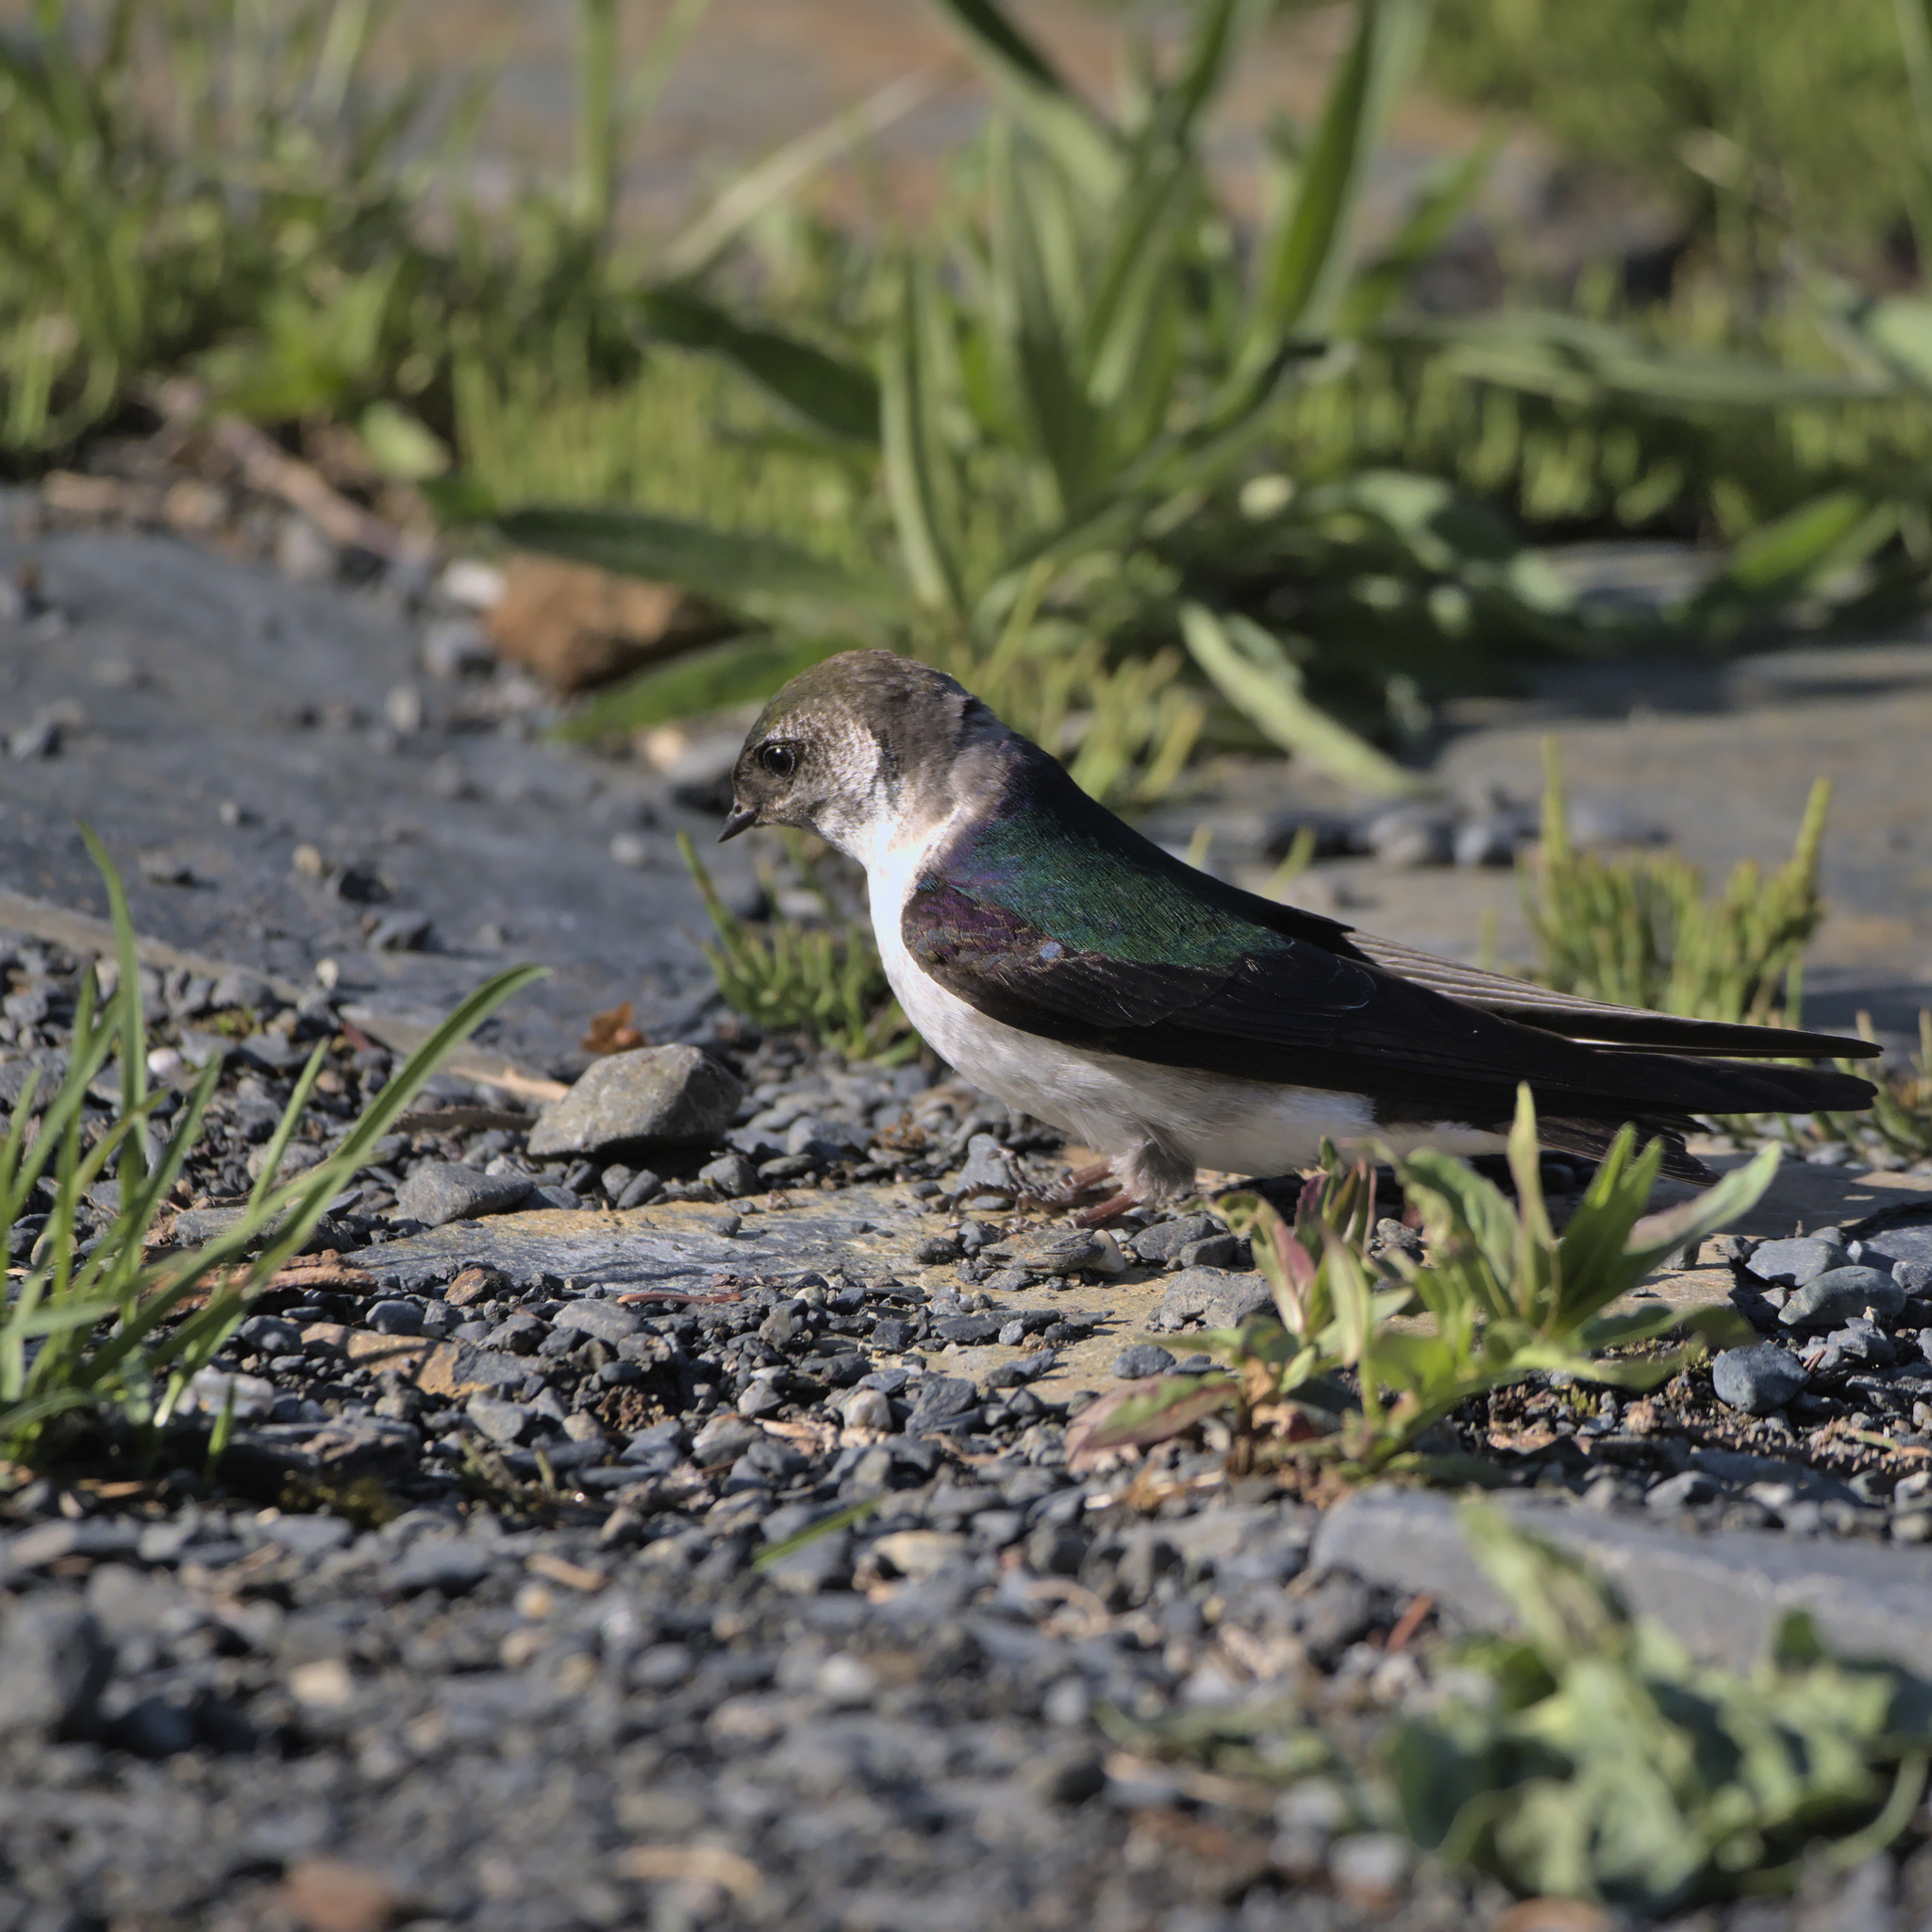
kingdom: Animalia
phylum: Chordata
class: Aves
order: Passeriformes
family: Hirundinidae
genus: Tachycineta
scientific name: Tachycineta thalassina
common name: Violet-green swallow
